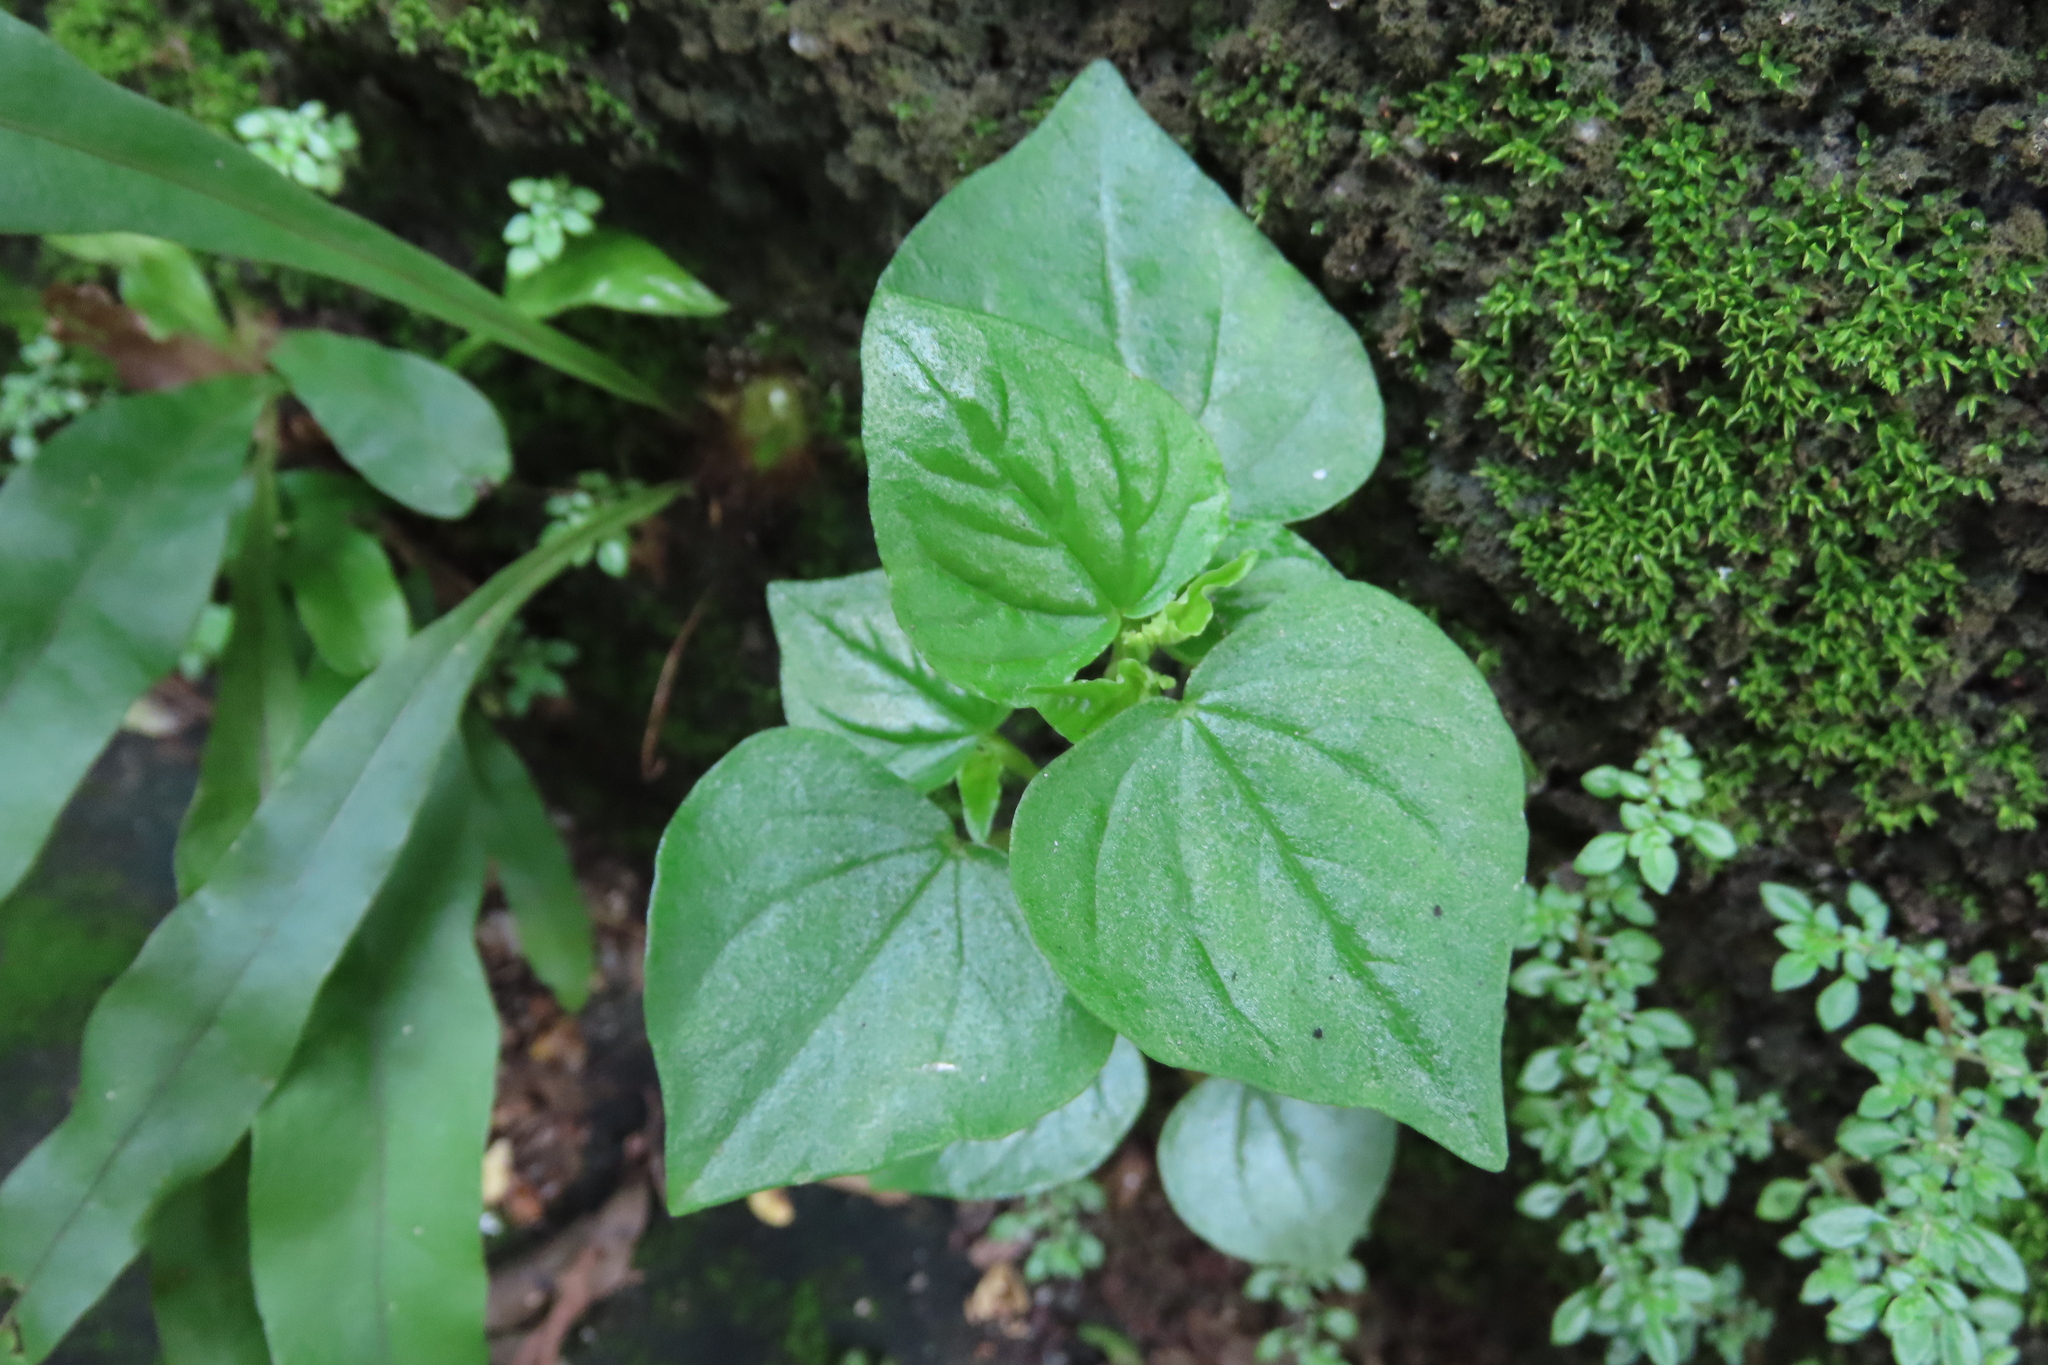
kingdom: Plantae
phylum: Tracheophyta
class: Magnoliopsida
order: Piperales
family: Piperaceae
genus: Peperomia
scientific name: Peperomia pellucida
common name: Man to man
